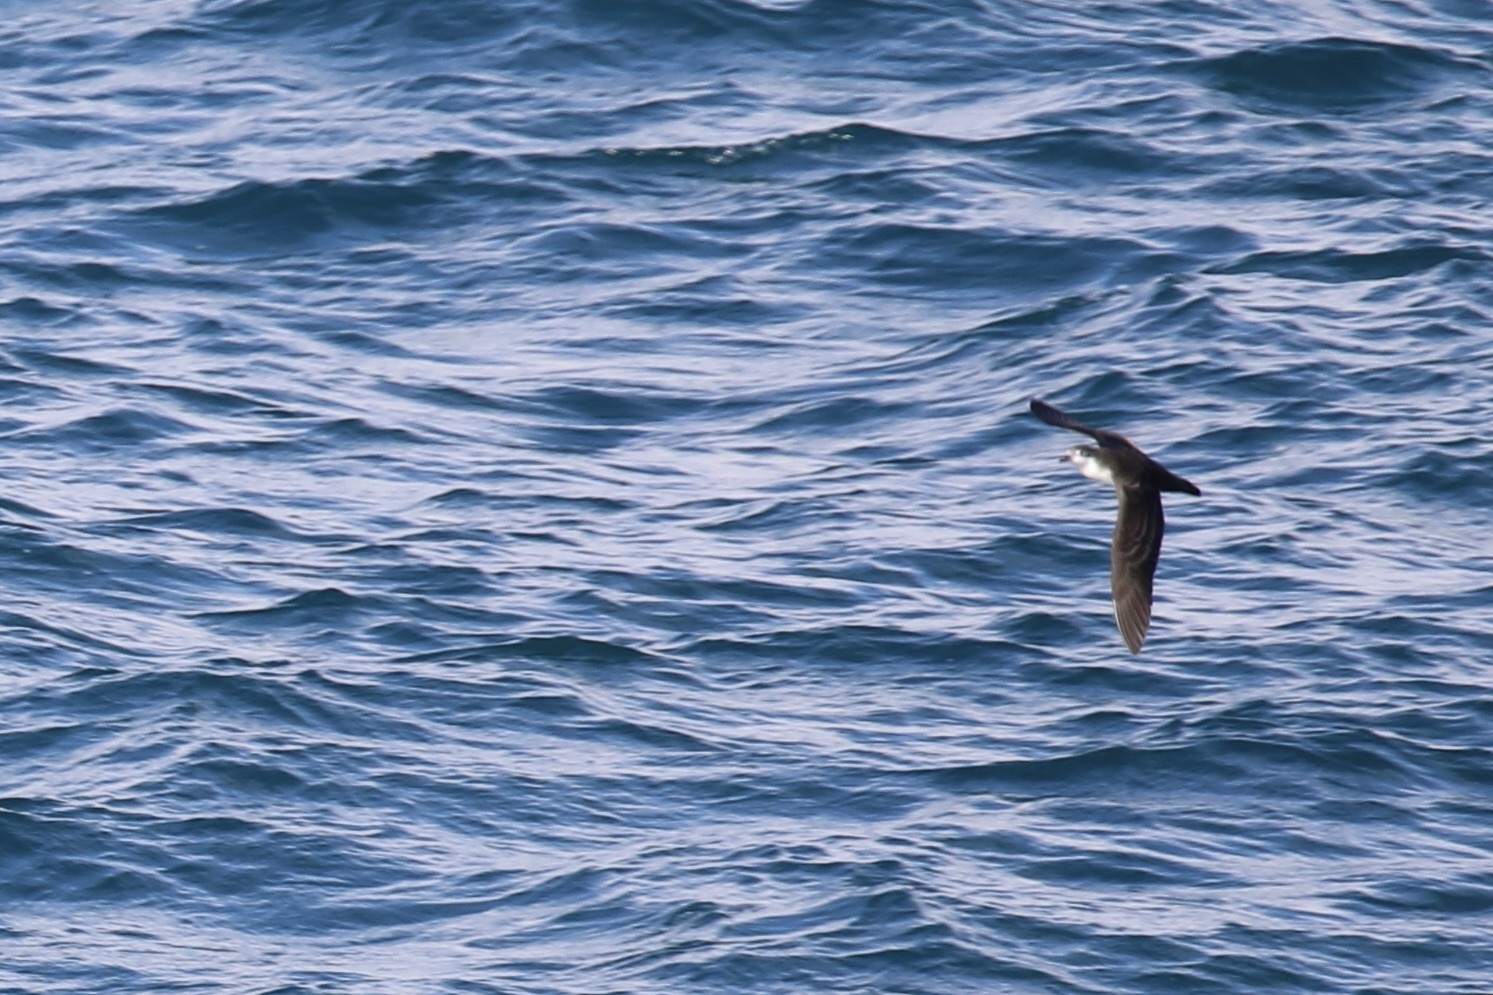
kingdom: Animalia
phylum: Chordata
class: Aves
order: Procellariiformes
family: Procellariidae
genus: Pterodroma
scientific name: Pterodroma phaeopygia
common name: Galapagos petrel
